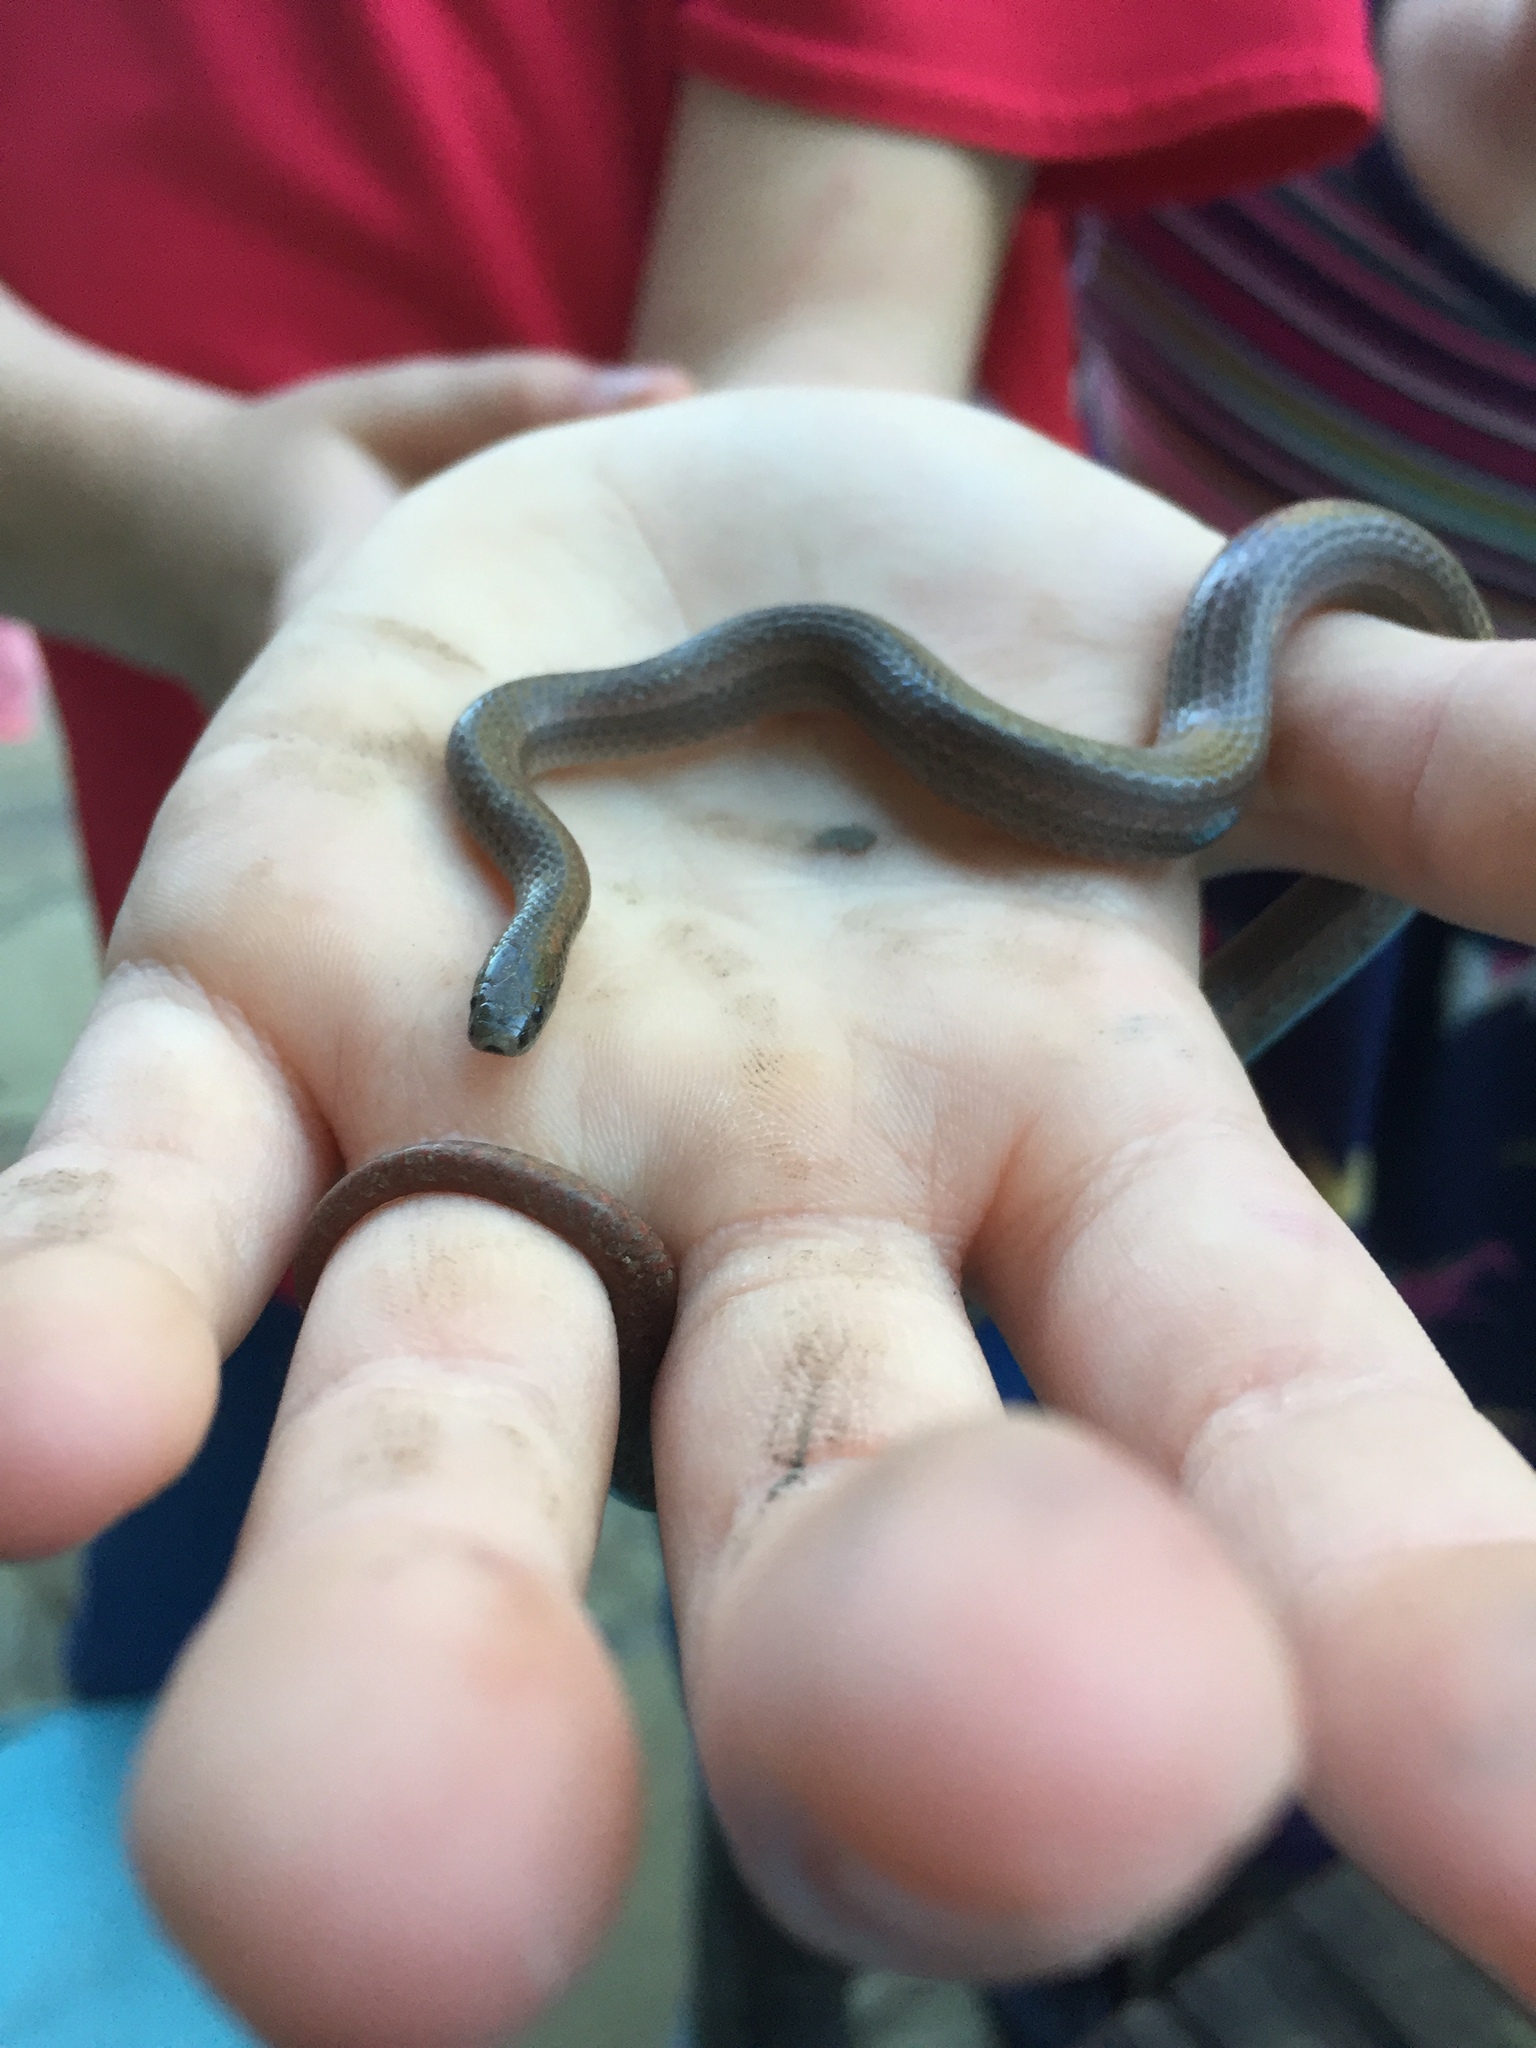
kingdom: Animalia
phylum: Chordata
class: Squamata
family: Colubridae
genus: Contia
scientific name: Contia tenuis
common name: Sharptail snake
